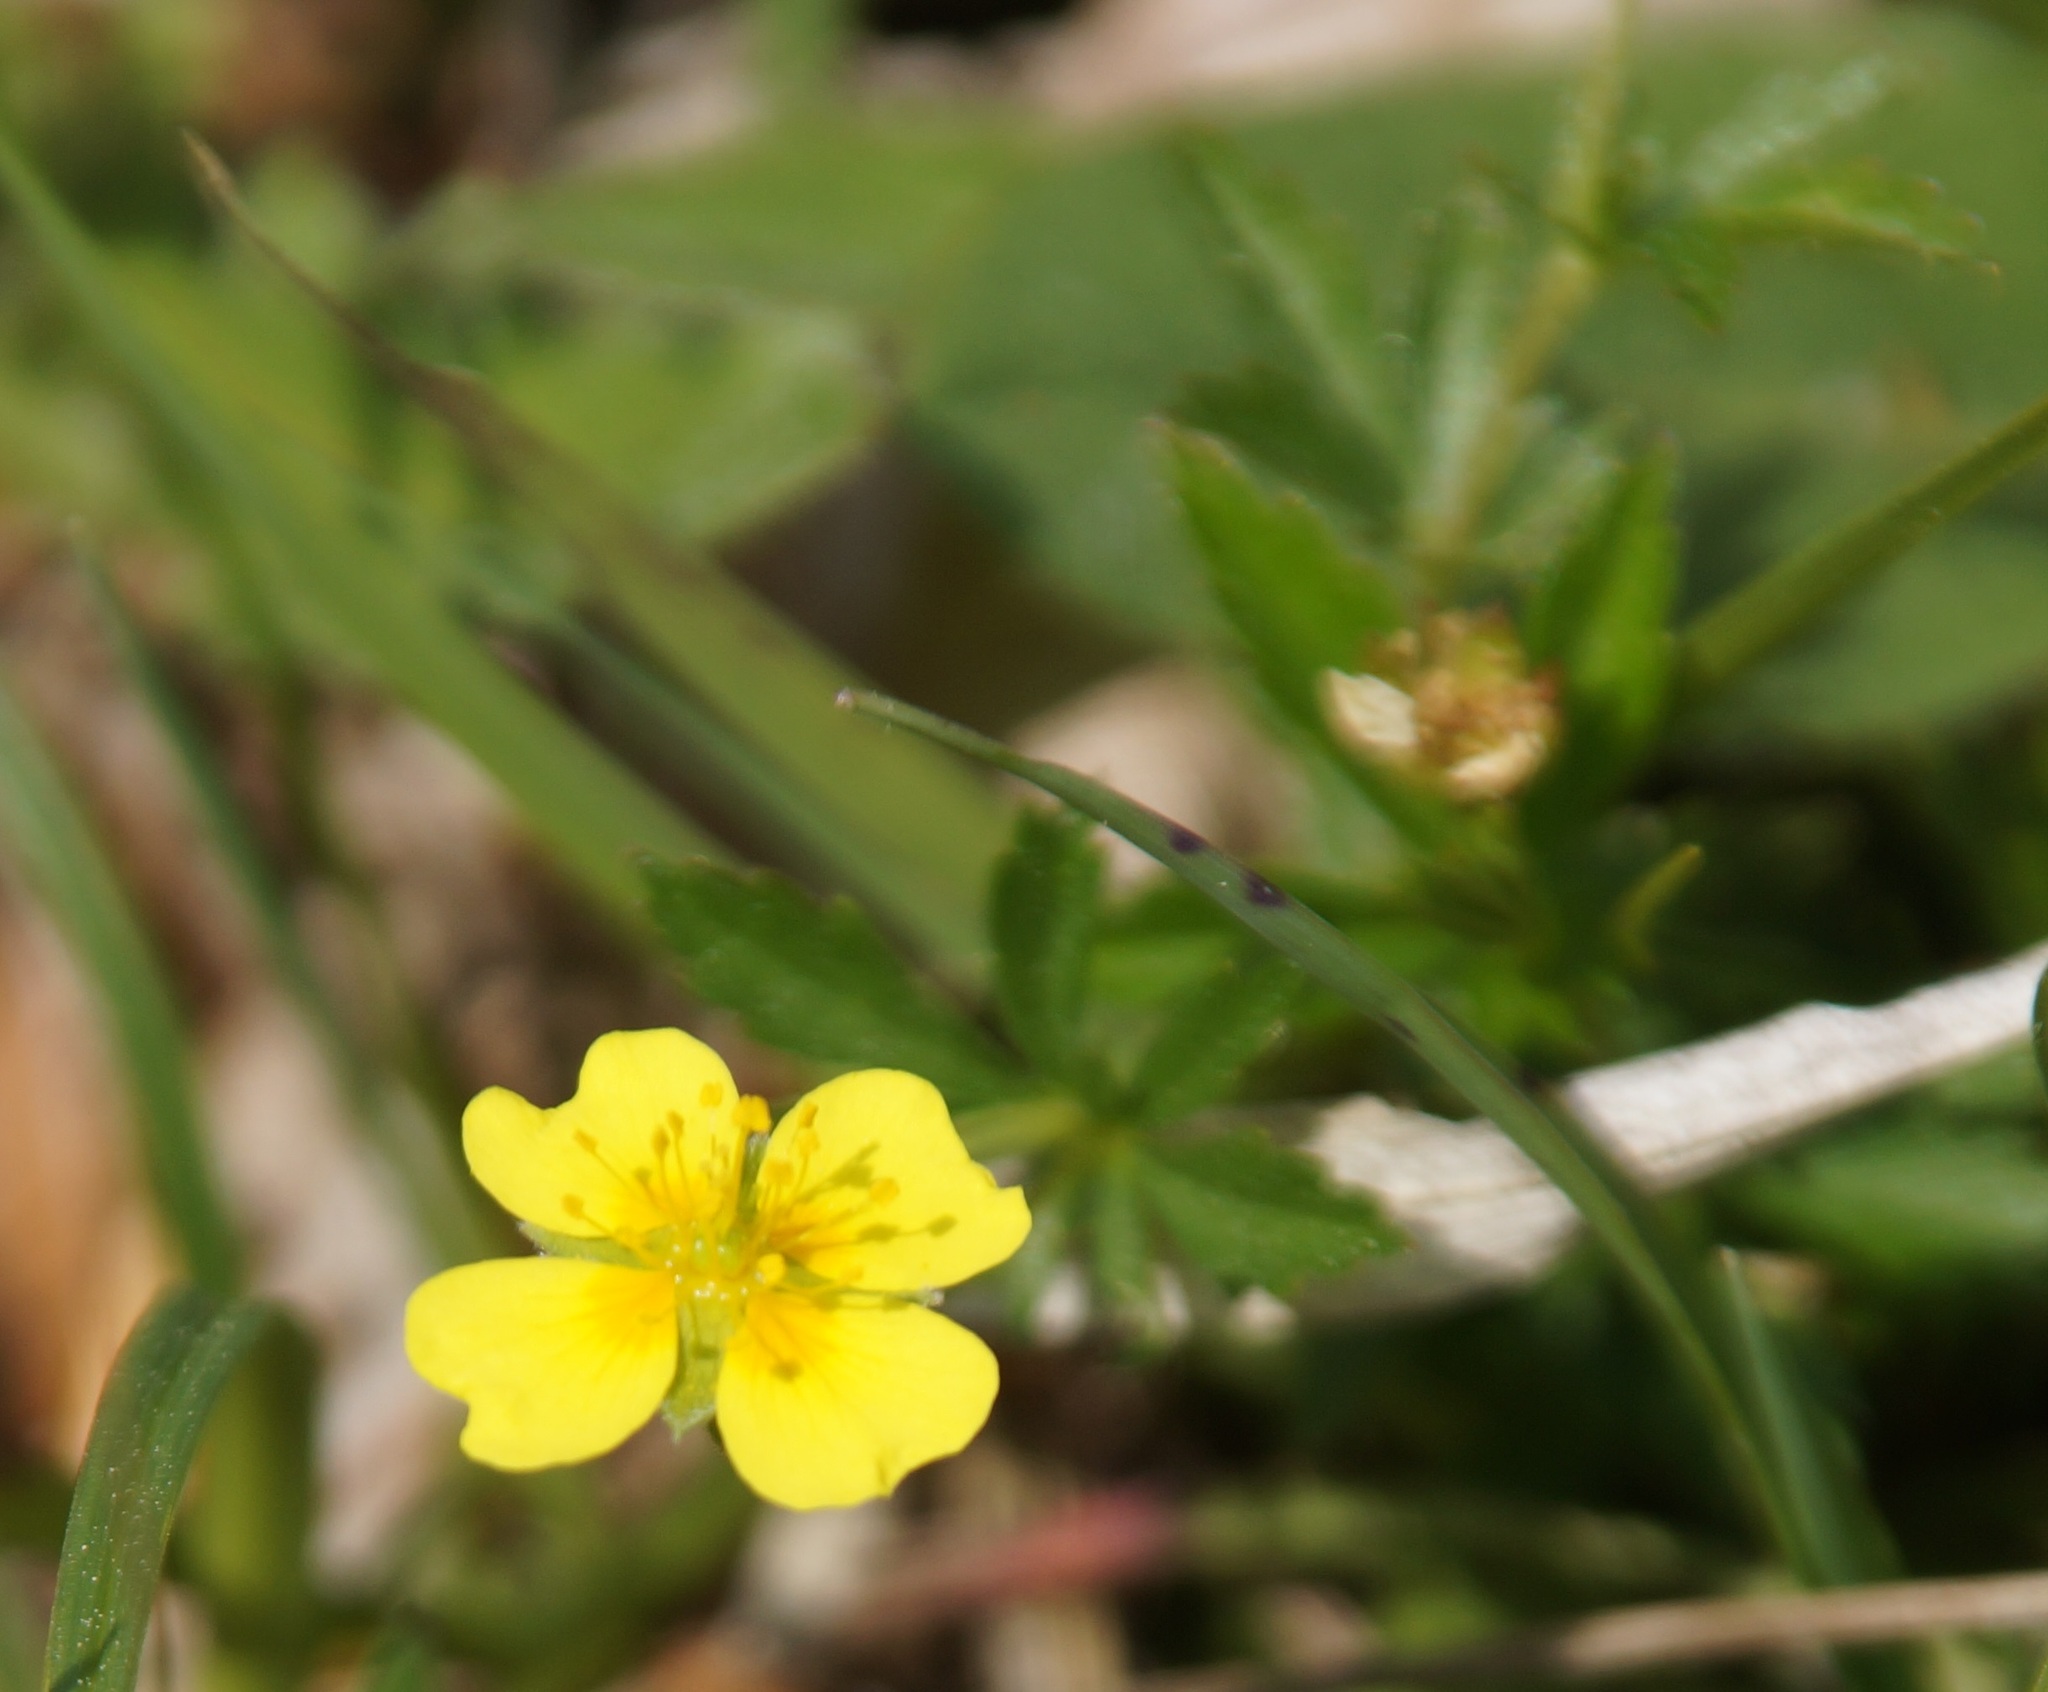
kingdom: Plantae
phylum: Tracheophyta
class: Magnoliopsida
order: Rosales
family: Rosaceae
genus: Potentilla
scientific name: Potentilla erecta
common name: Tormentil
